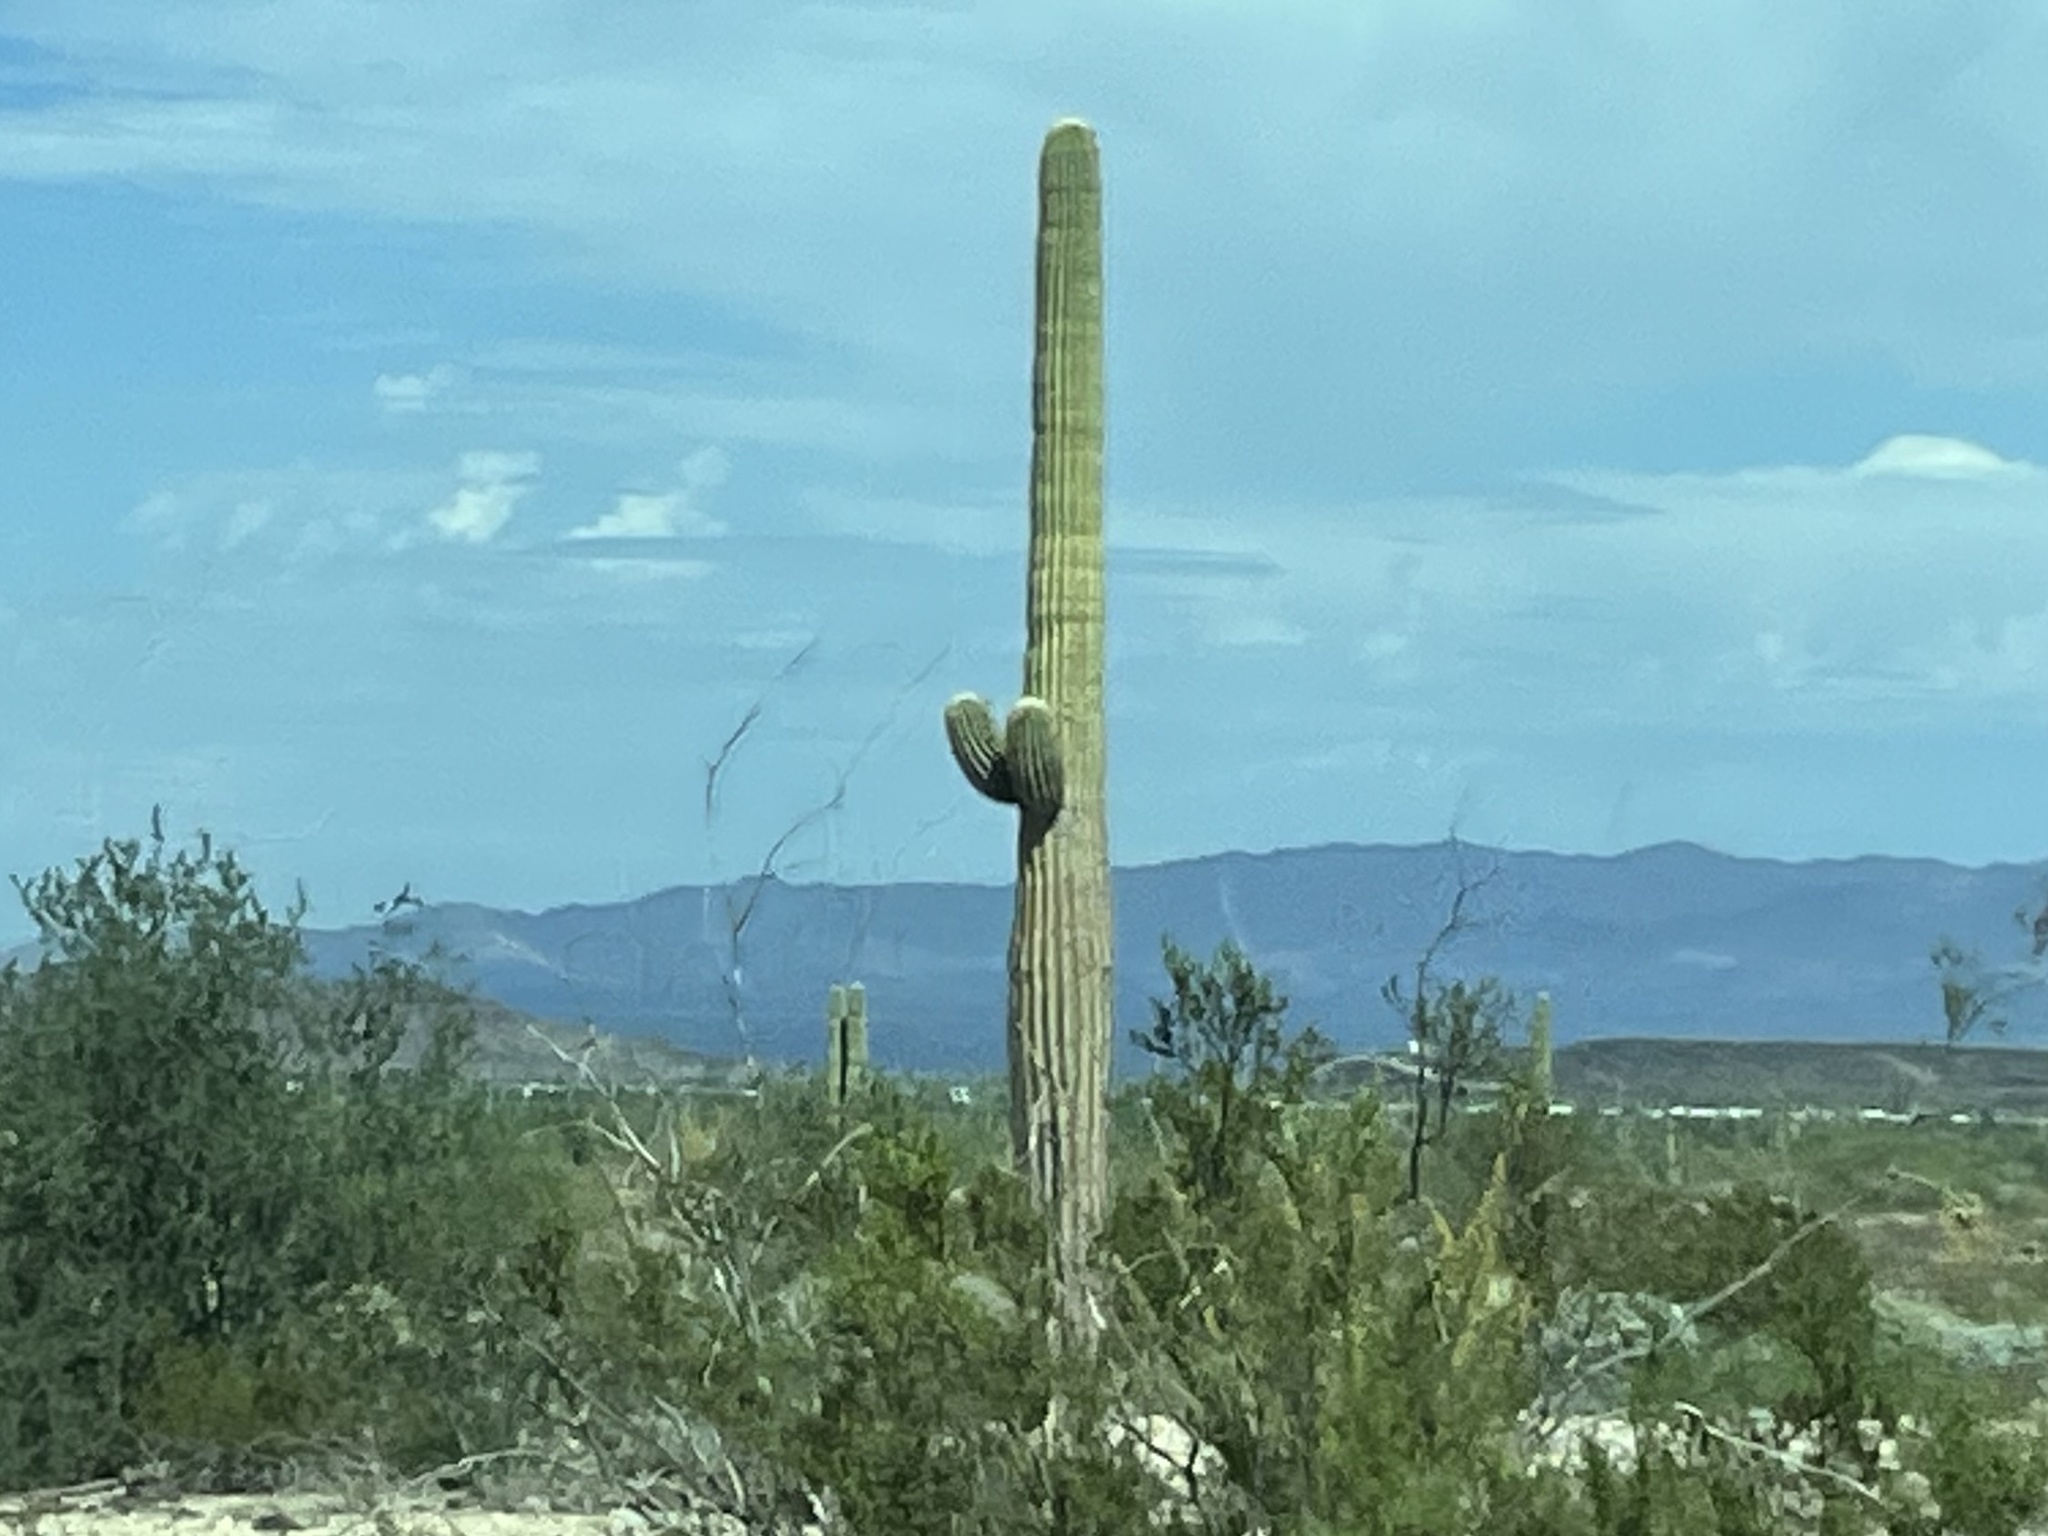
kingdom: Plantae
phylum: Tracheophyta
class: Magnoliopsida
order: Caryophyllales
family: Cactaceae
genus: Carnegiea
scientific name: Carnegiea gigantea
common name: Saguaro
